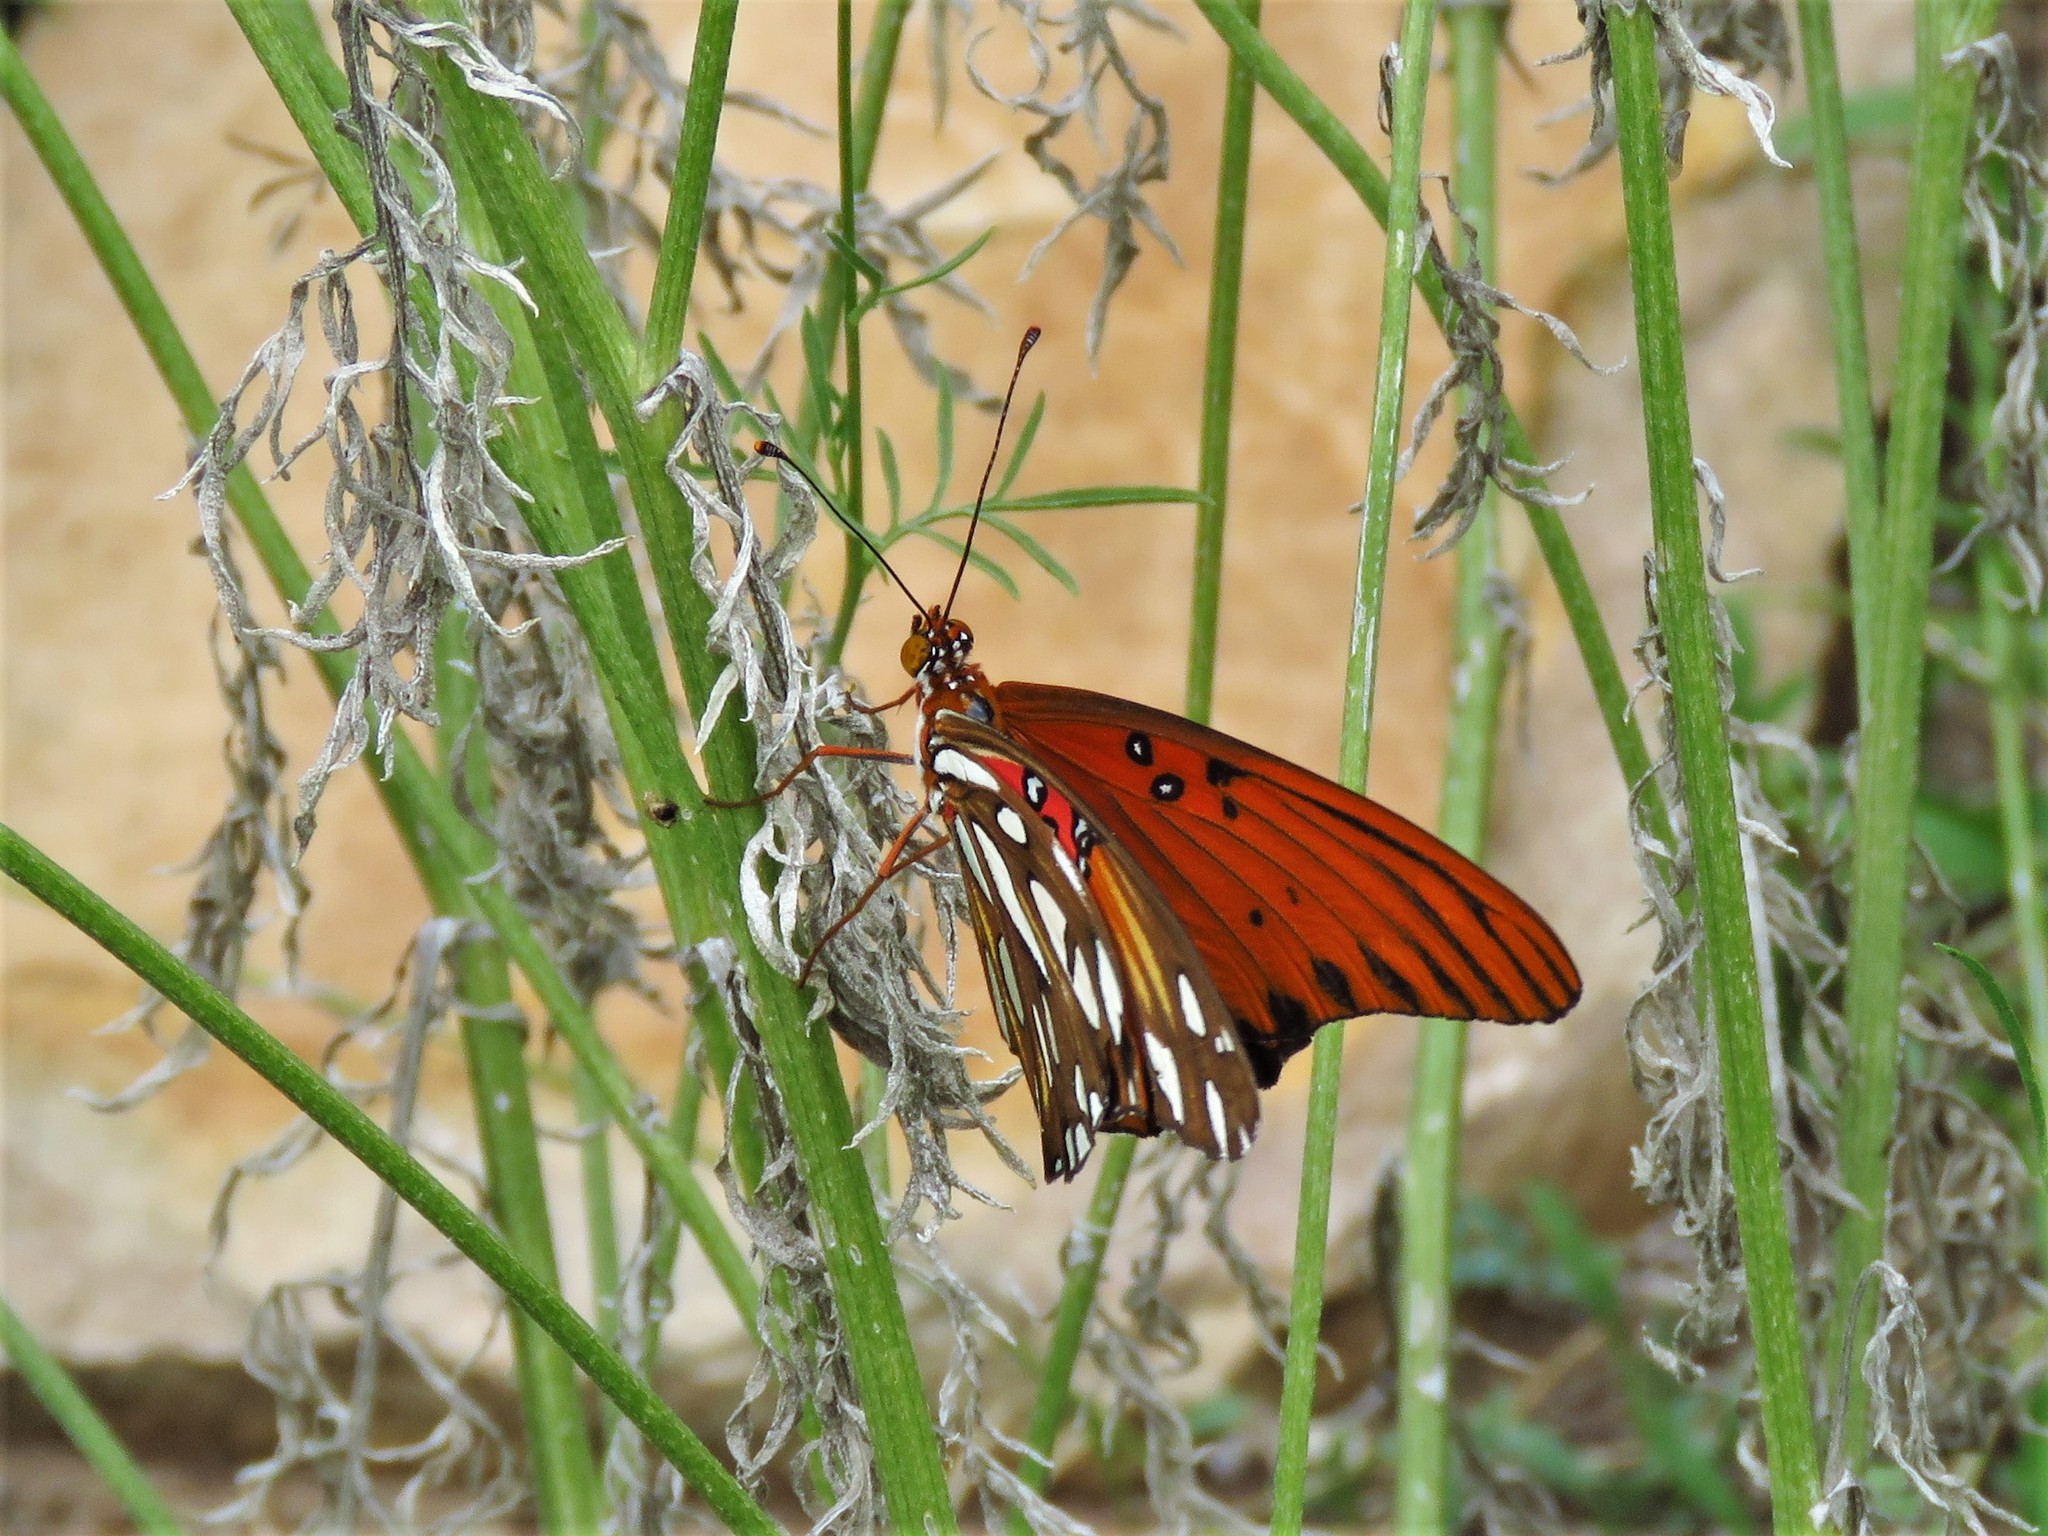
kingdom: Animalia
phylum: Arthropoda
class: Insecta
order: Lepidoptera
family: Nymphalidae
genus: Dione
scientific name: Dione vanillae
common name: Gulf fritillary
